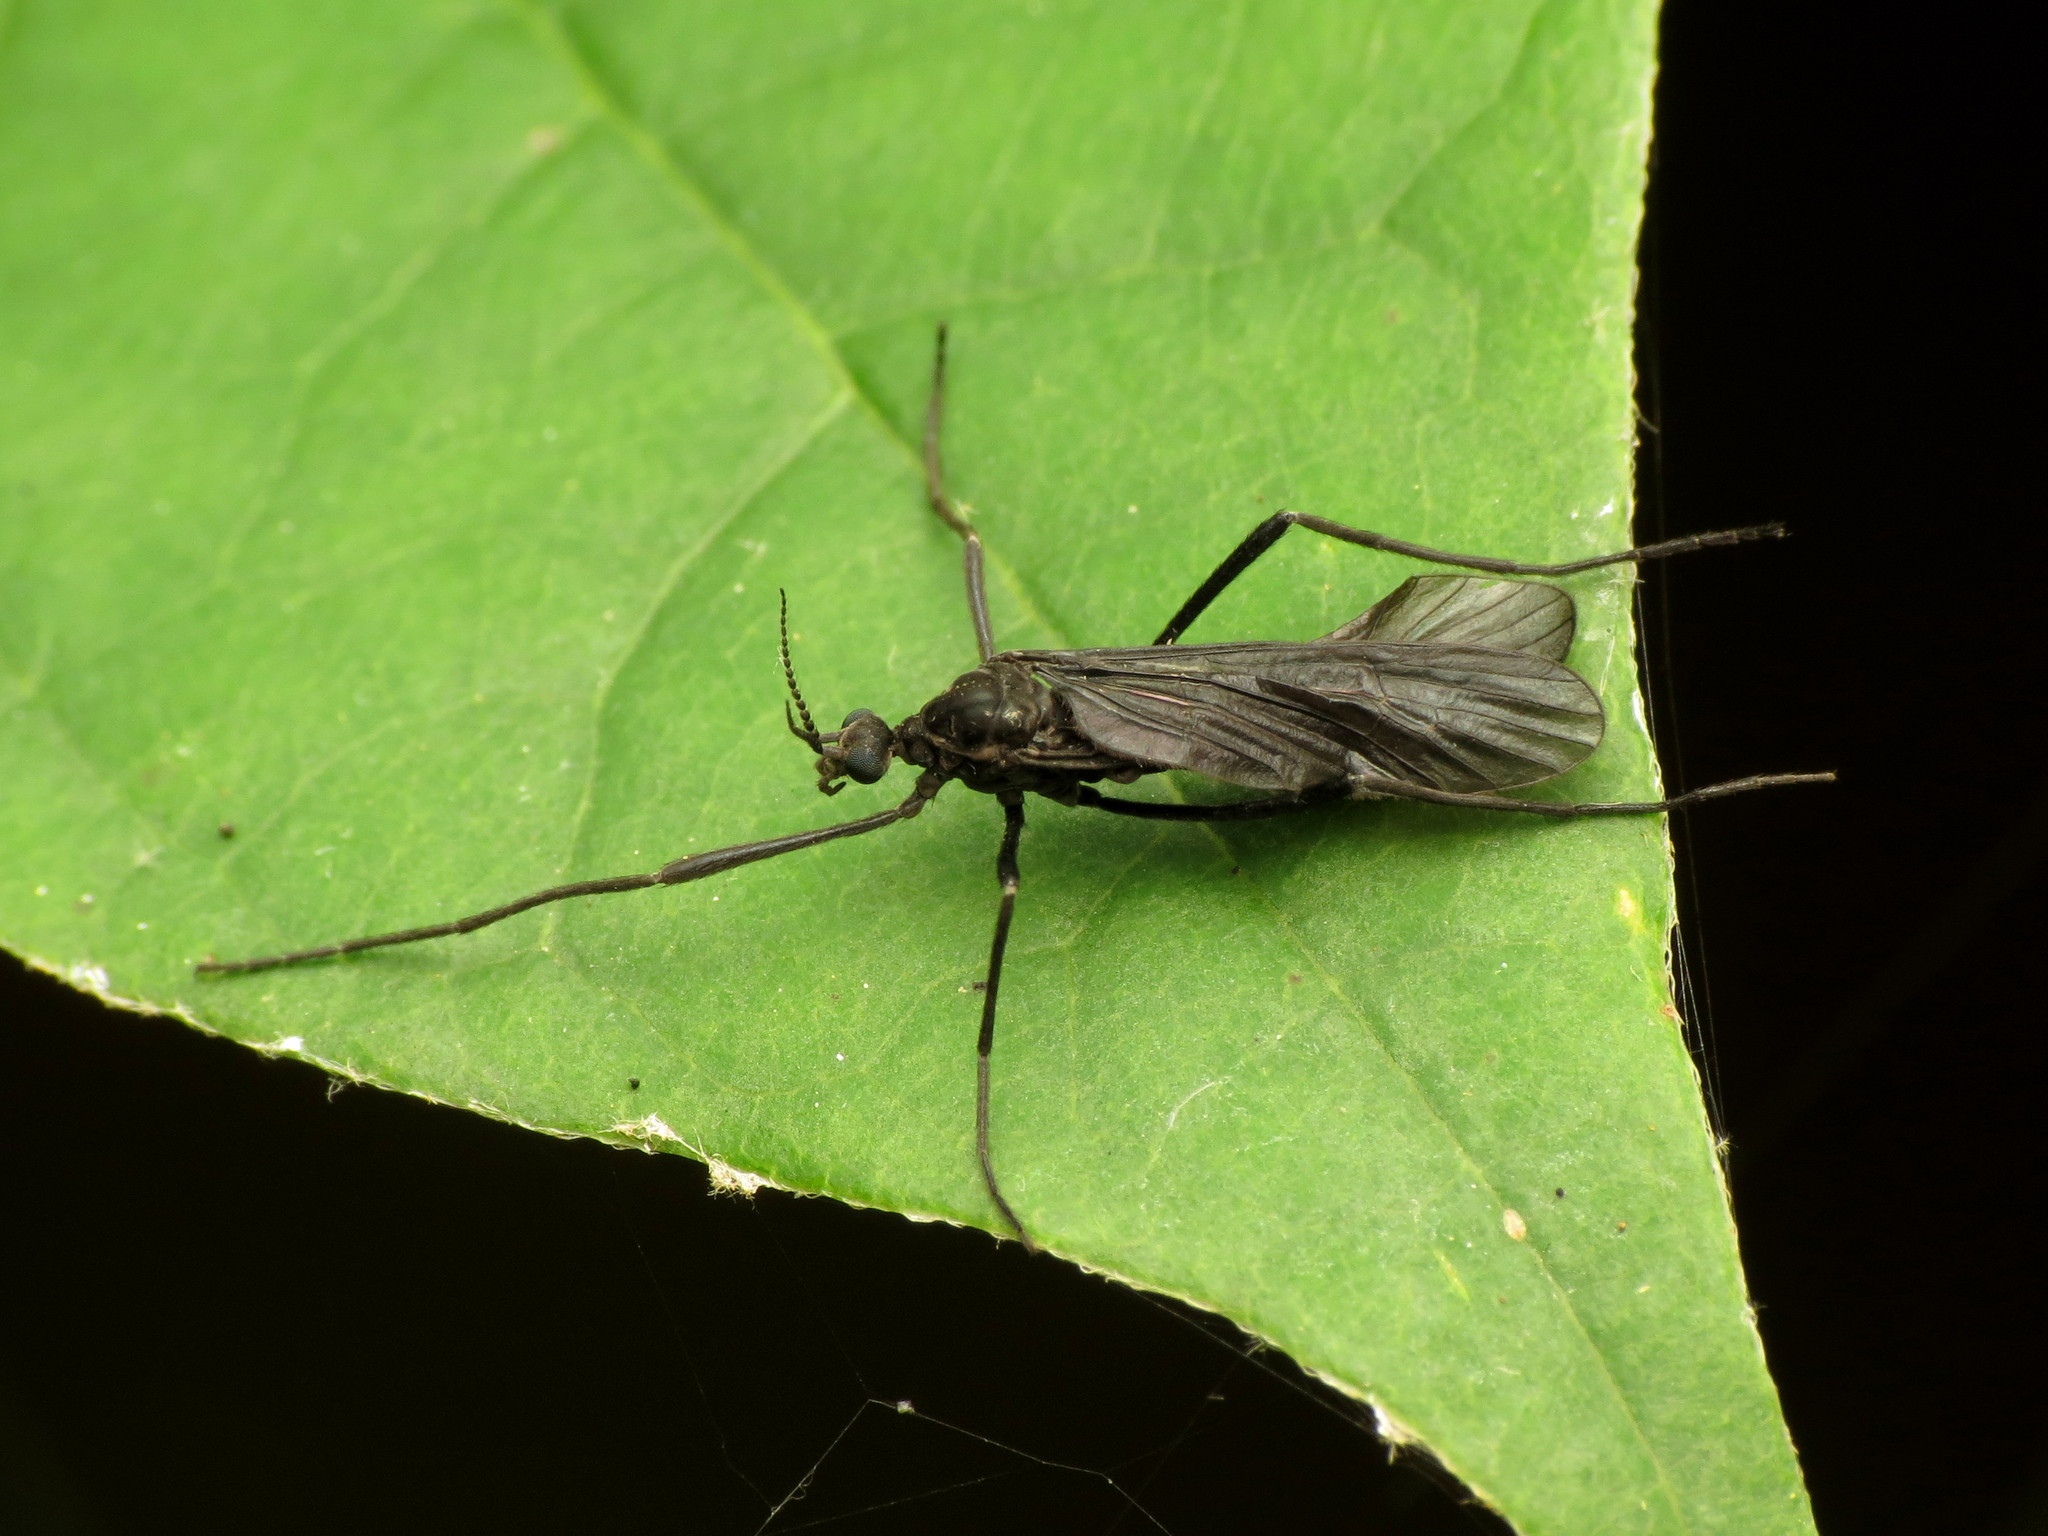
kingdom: Animalia
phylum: Arthropoda
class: Insecta
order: Diptera
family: Limoniidae
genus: Eugnophomyia
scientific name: Eugnophomyia luctuosa
